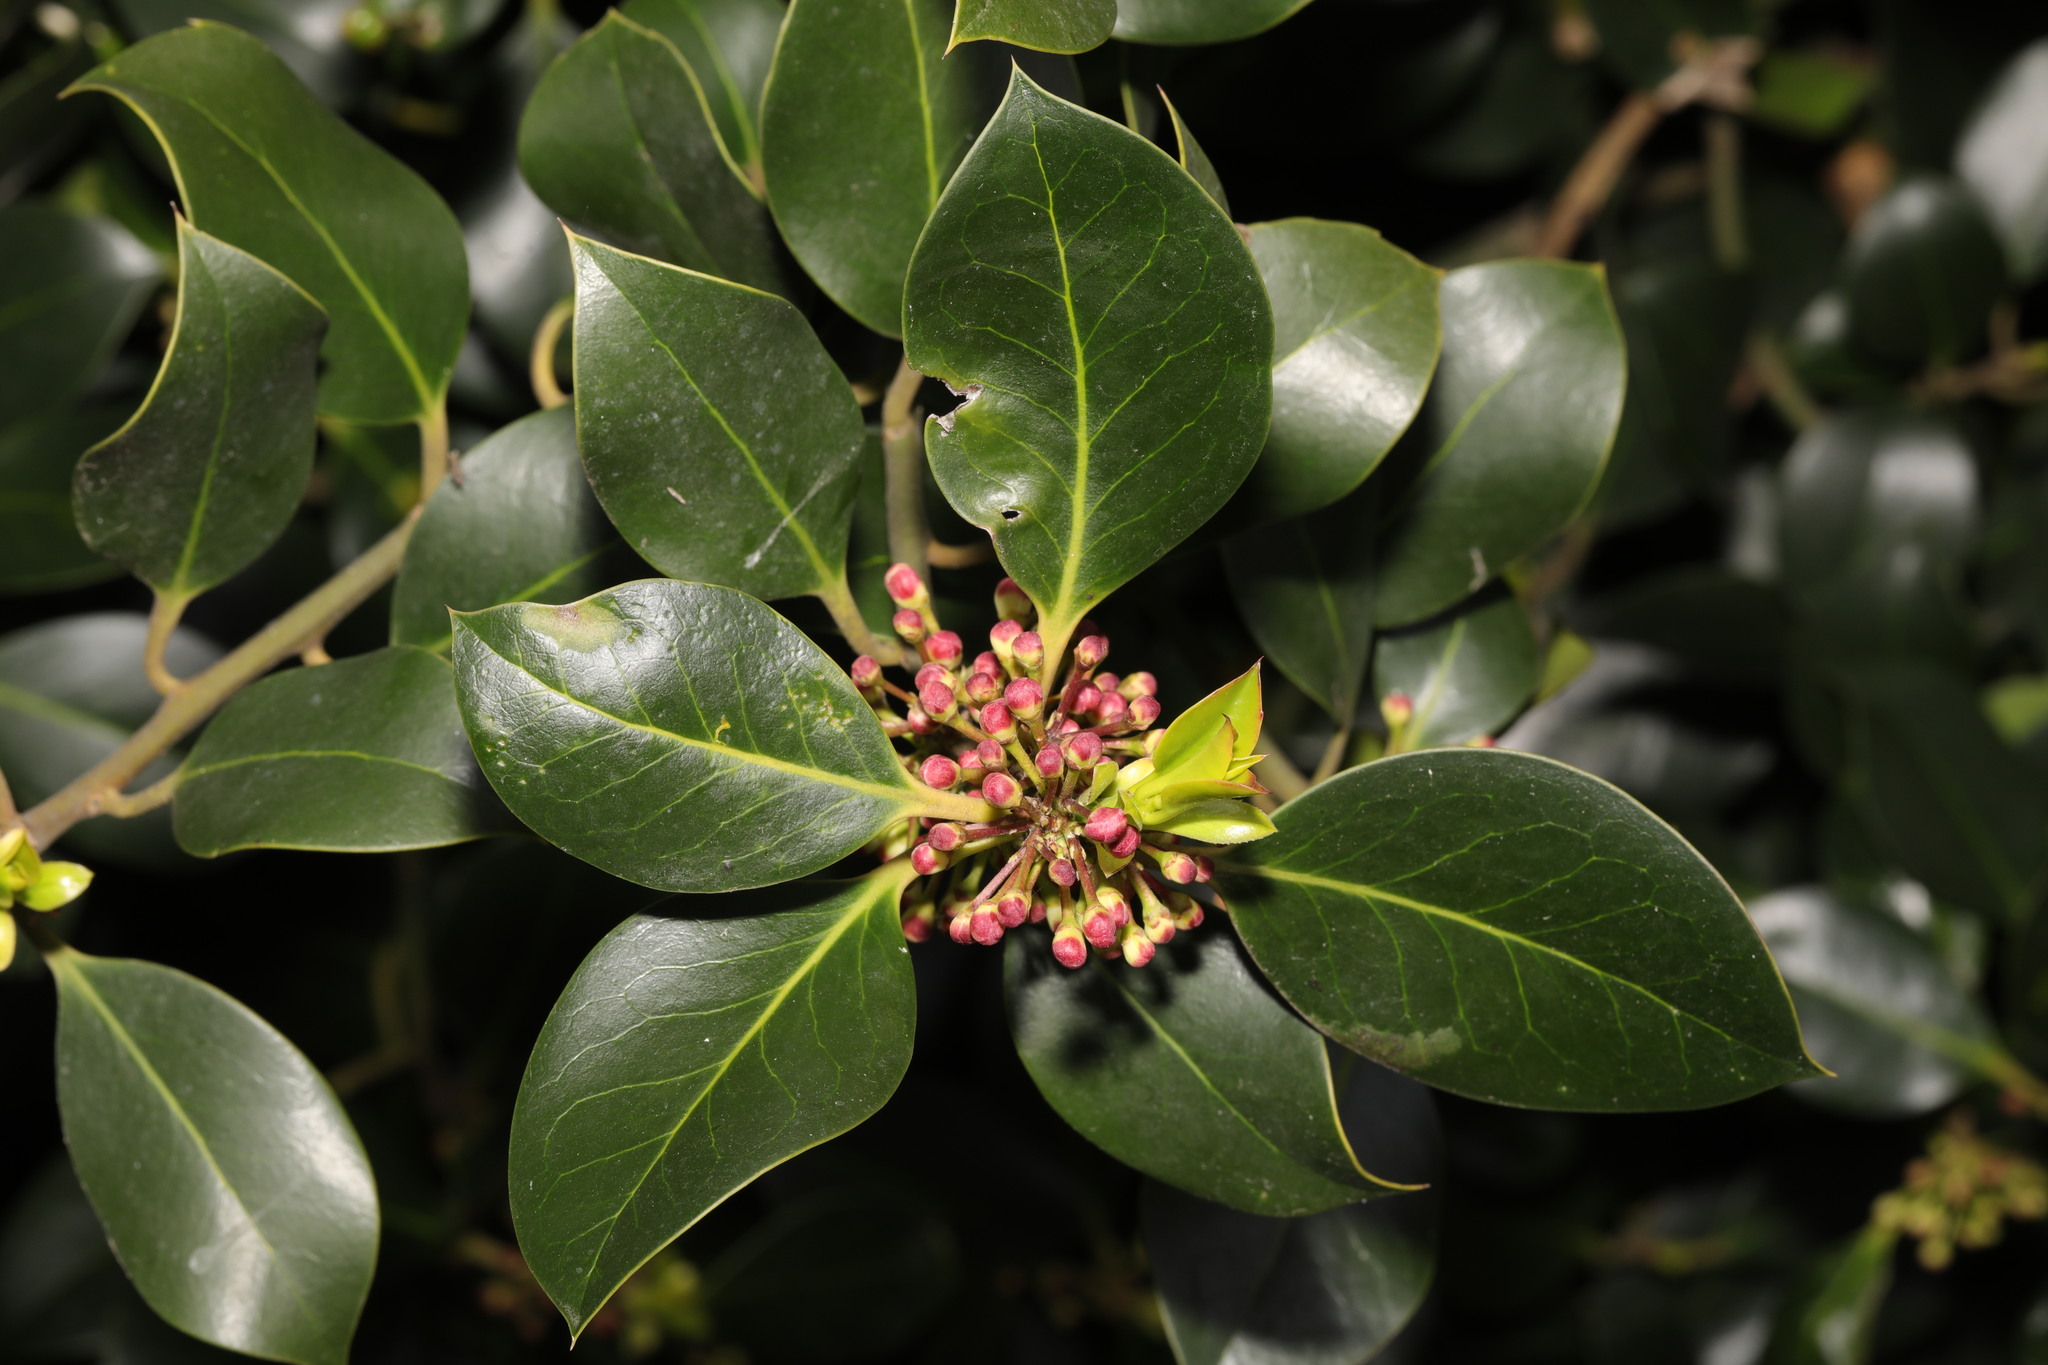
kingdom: Plantae
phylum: Tracheophyta
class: Magnoliopsida
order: Aquifoliales
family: Aquifoliaceae
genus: Ilex
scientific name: Ilex aquifolium
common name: English holly
